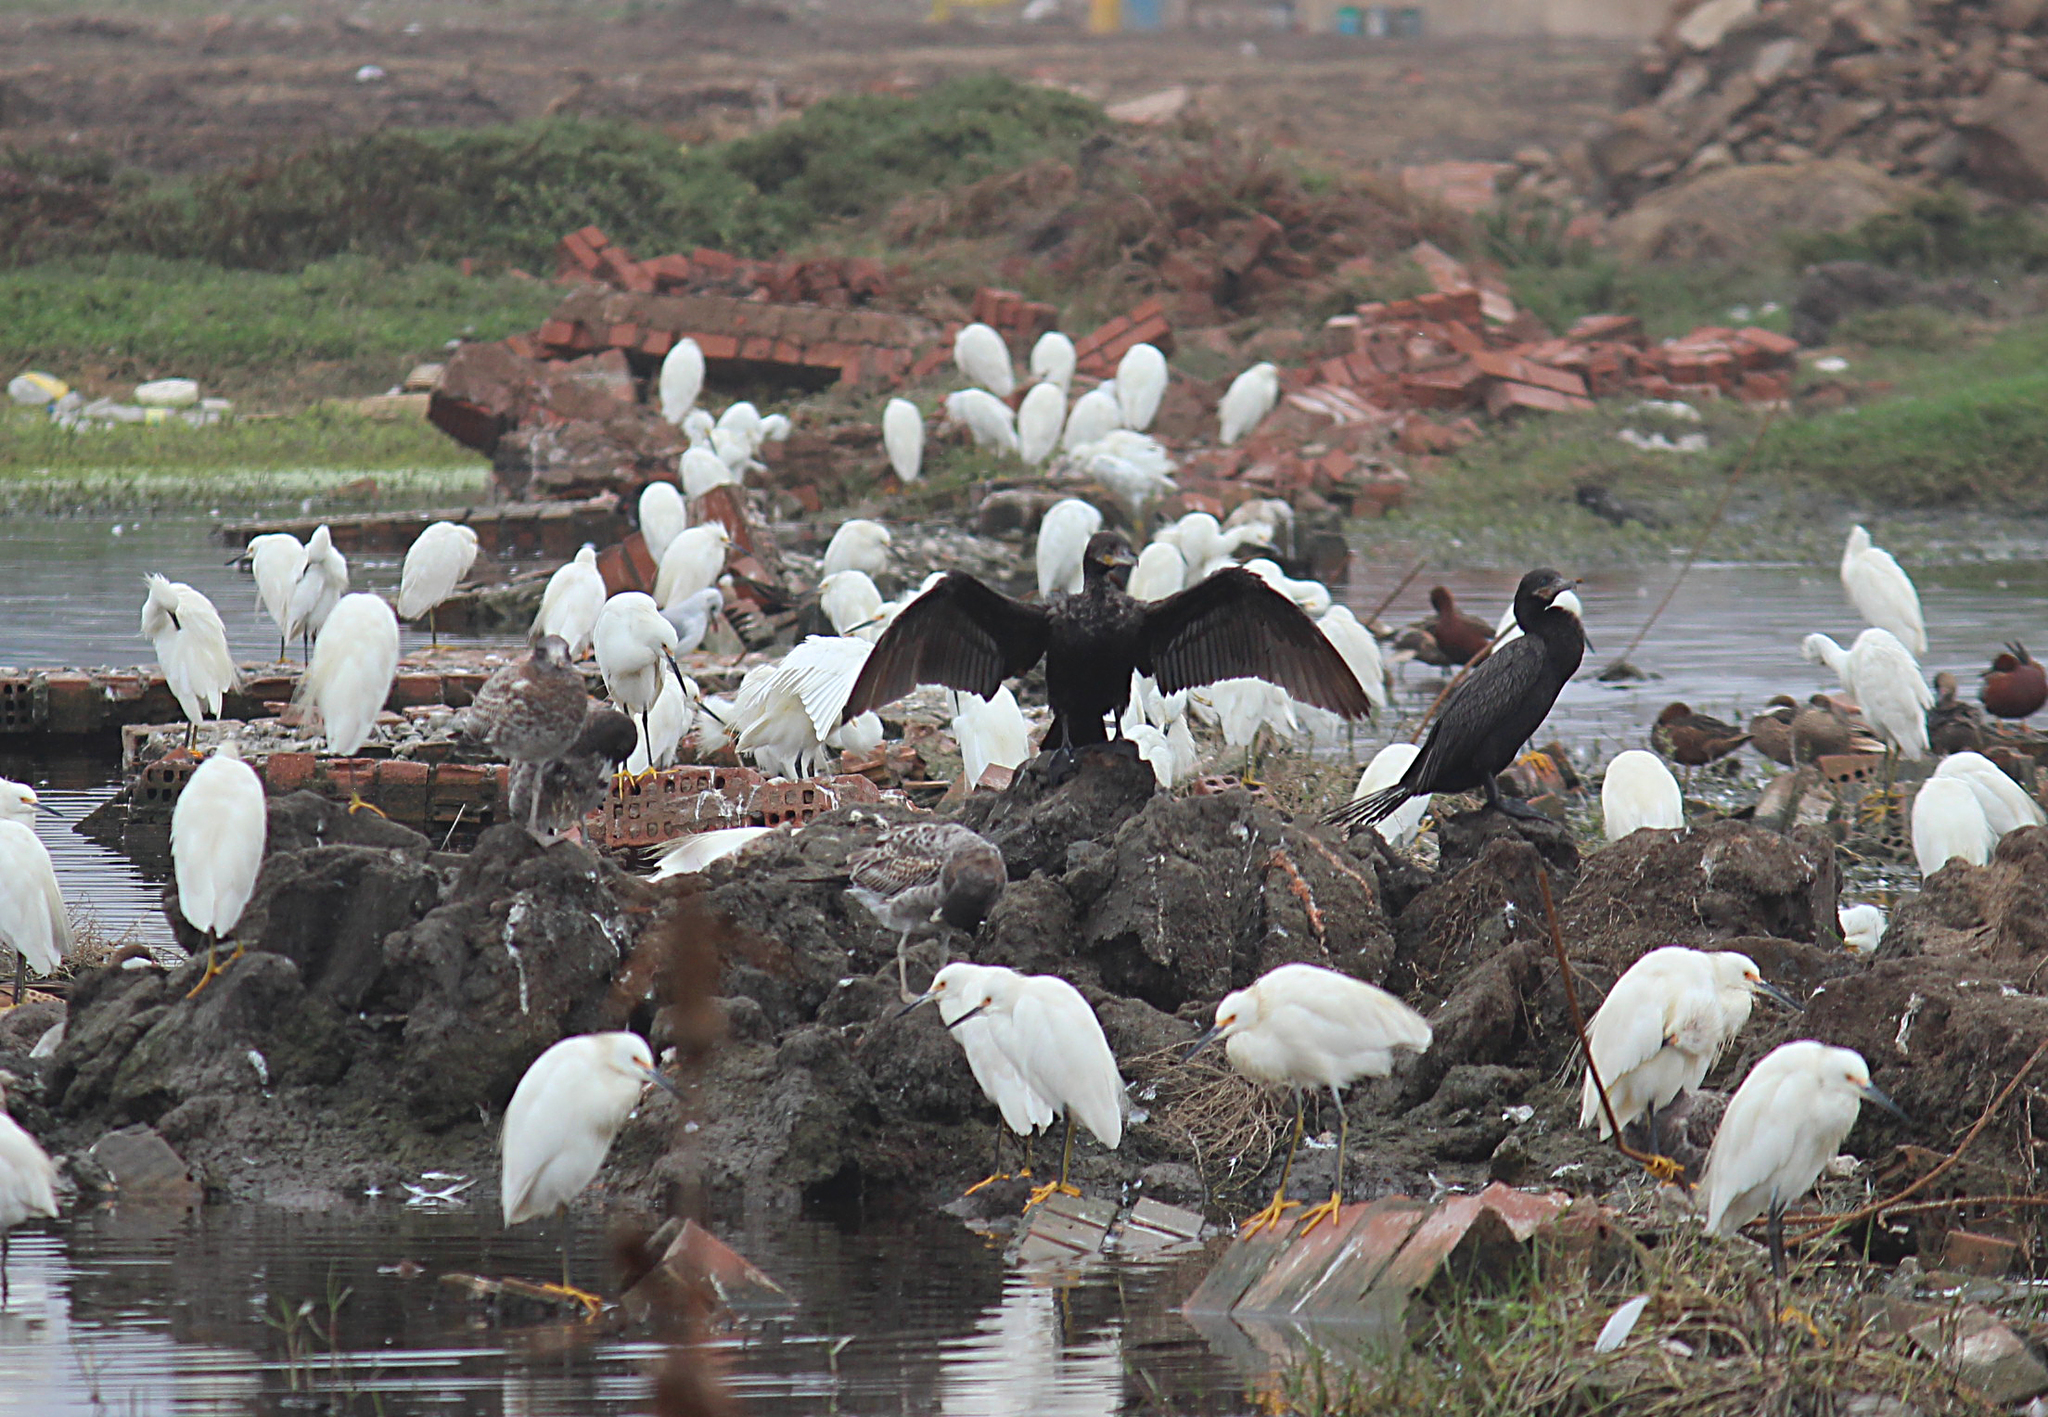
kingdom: Animalia
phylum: Chordata
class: Aves
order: Suliformes
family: Phalacrocoracidae
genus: Phalacrocorax
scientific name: Phalacrocorax brasilianus
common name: Neotropic cormorant
